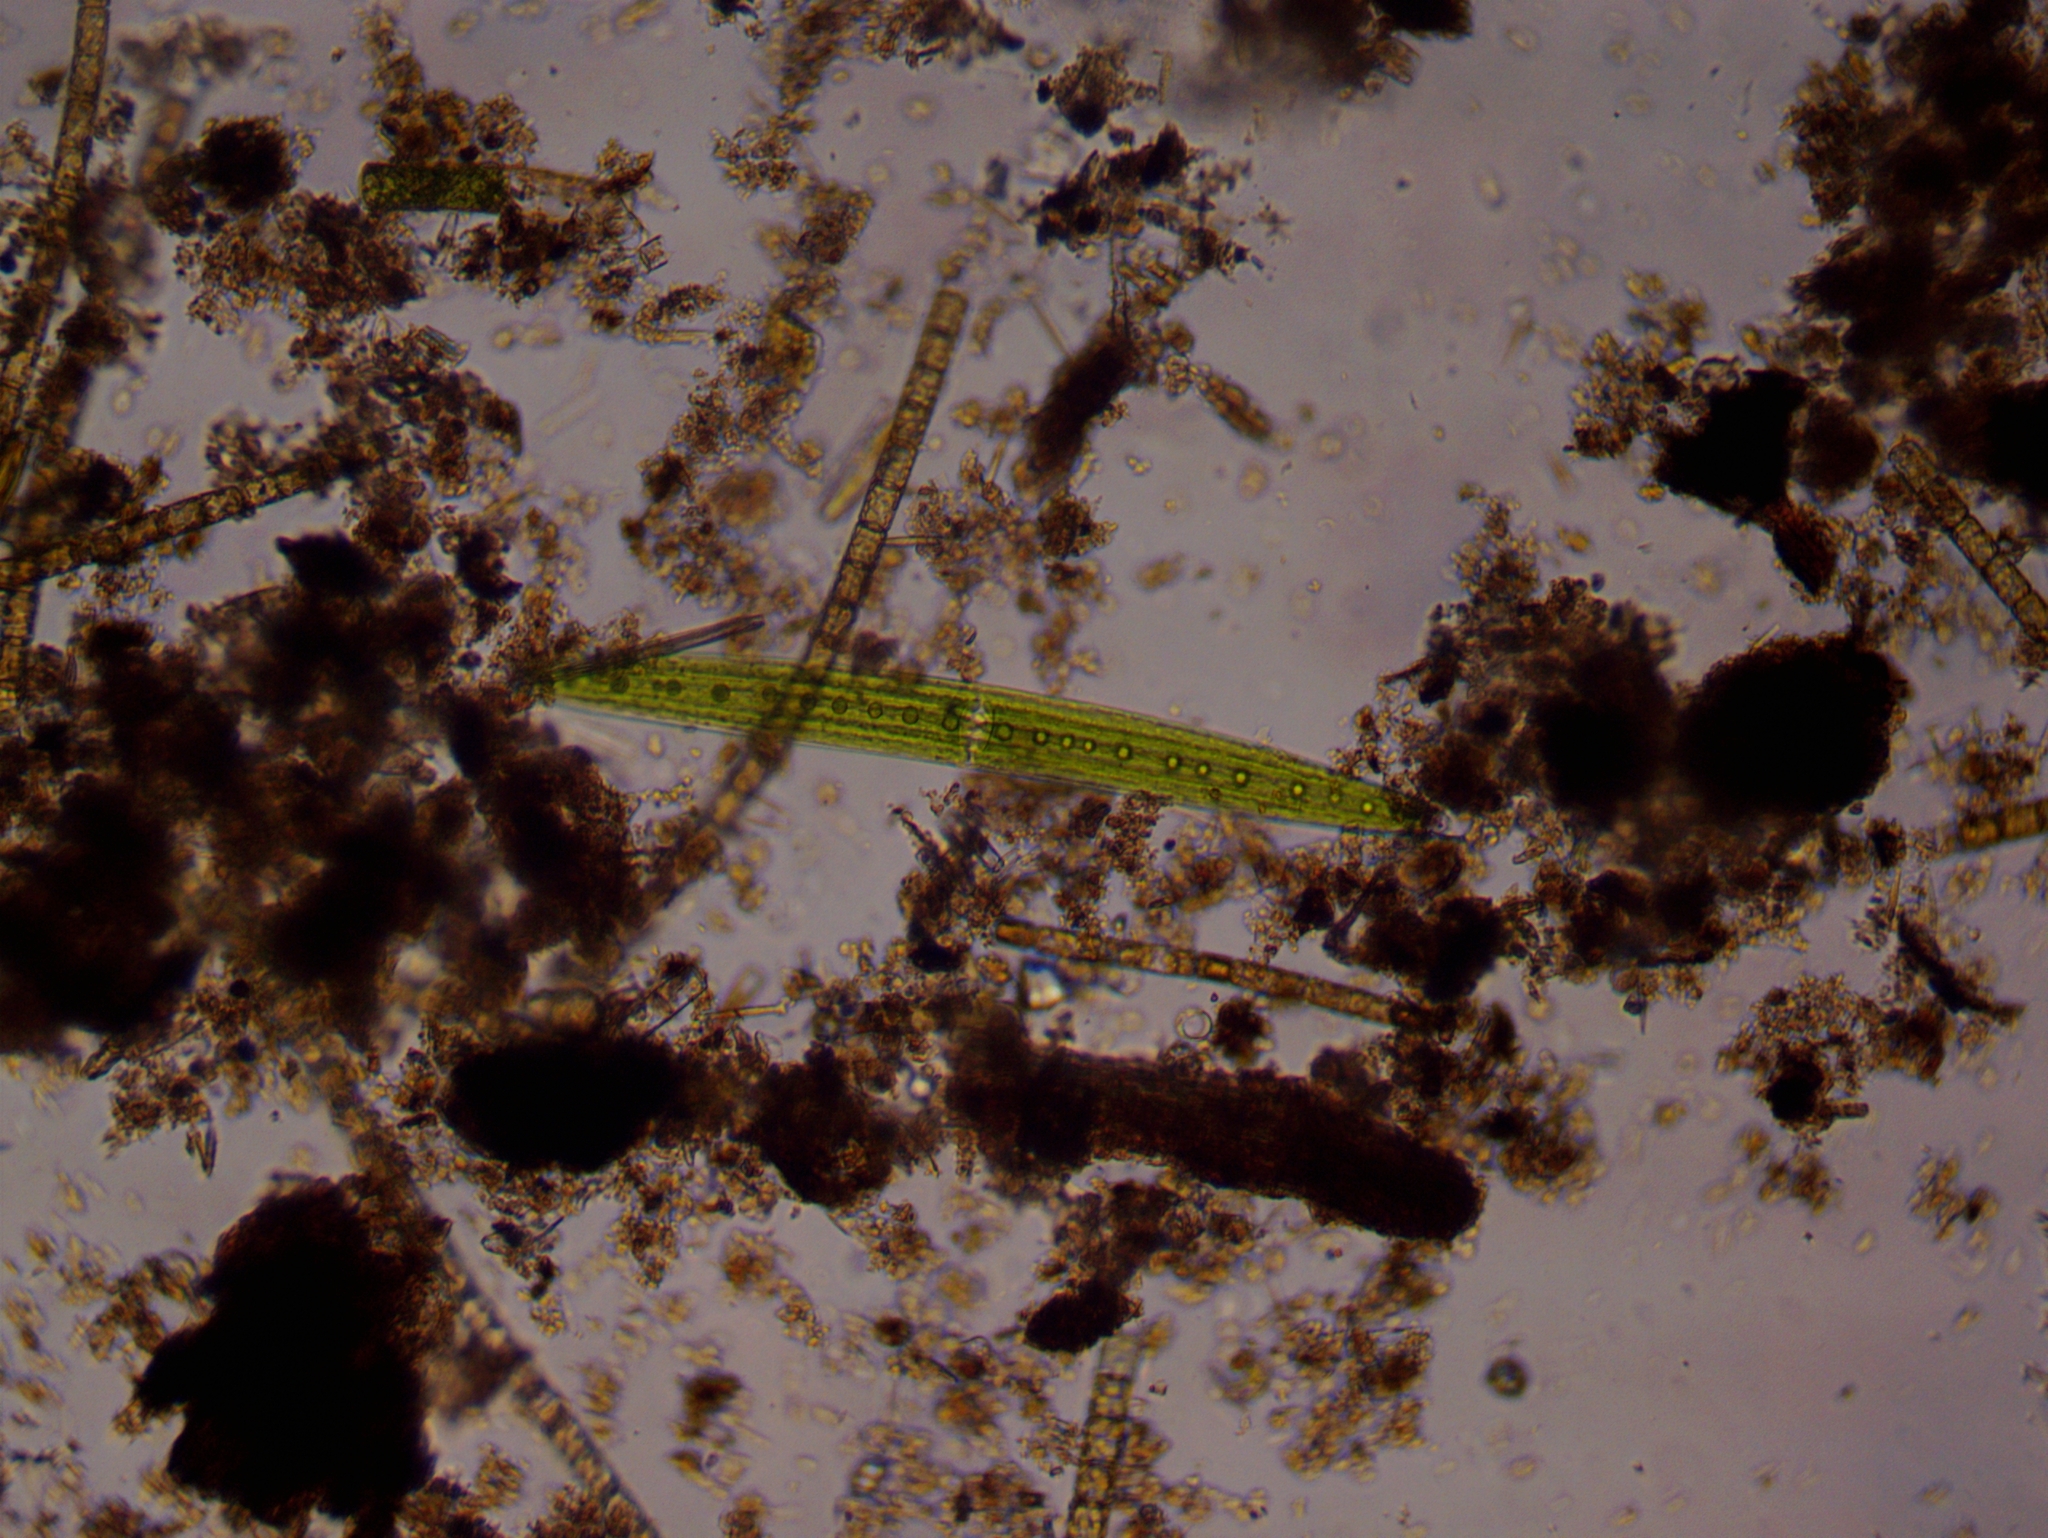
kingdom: Plantae
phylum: Charophyta
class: Zygnematophyceae
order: Zygnematales
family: Closteriaceae
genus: Closterium
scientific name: Closterium acerosum
